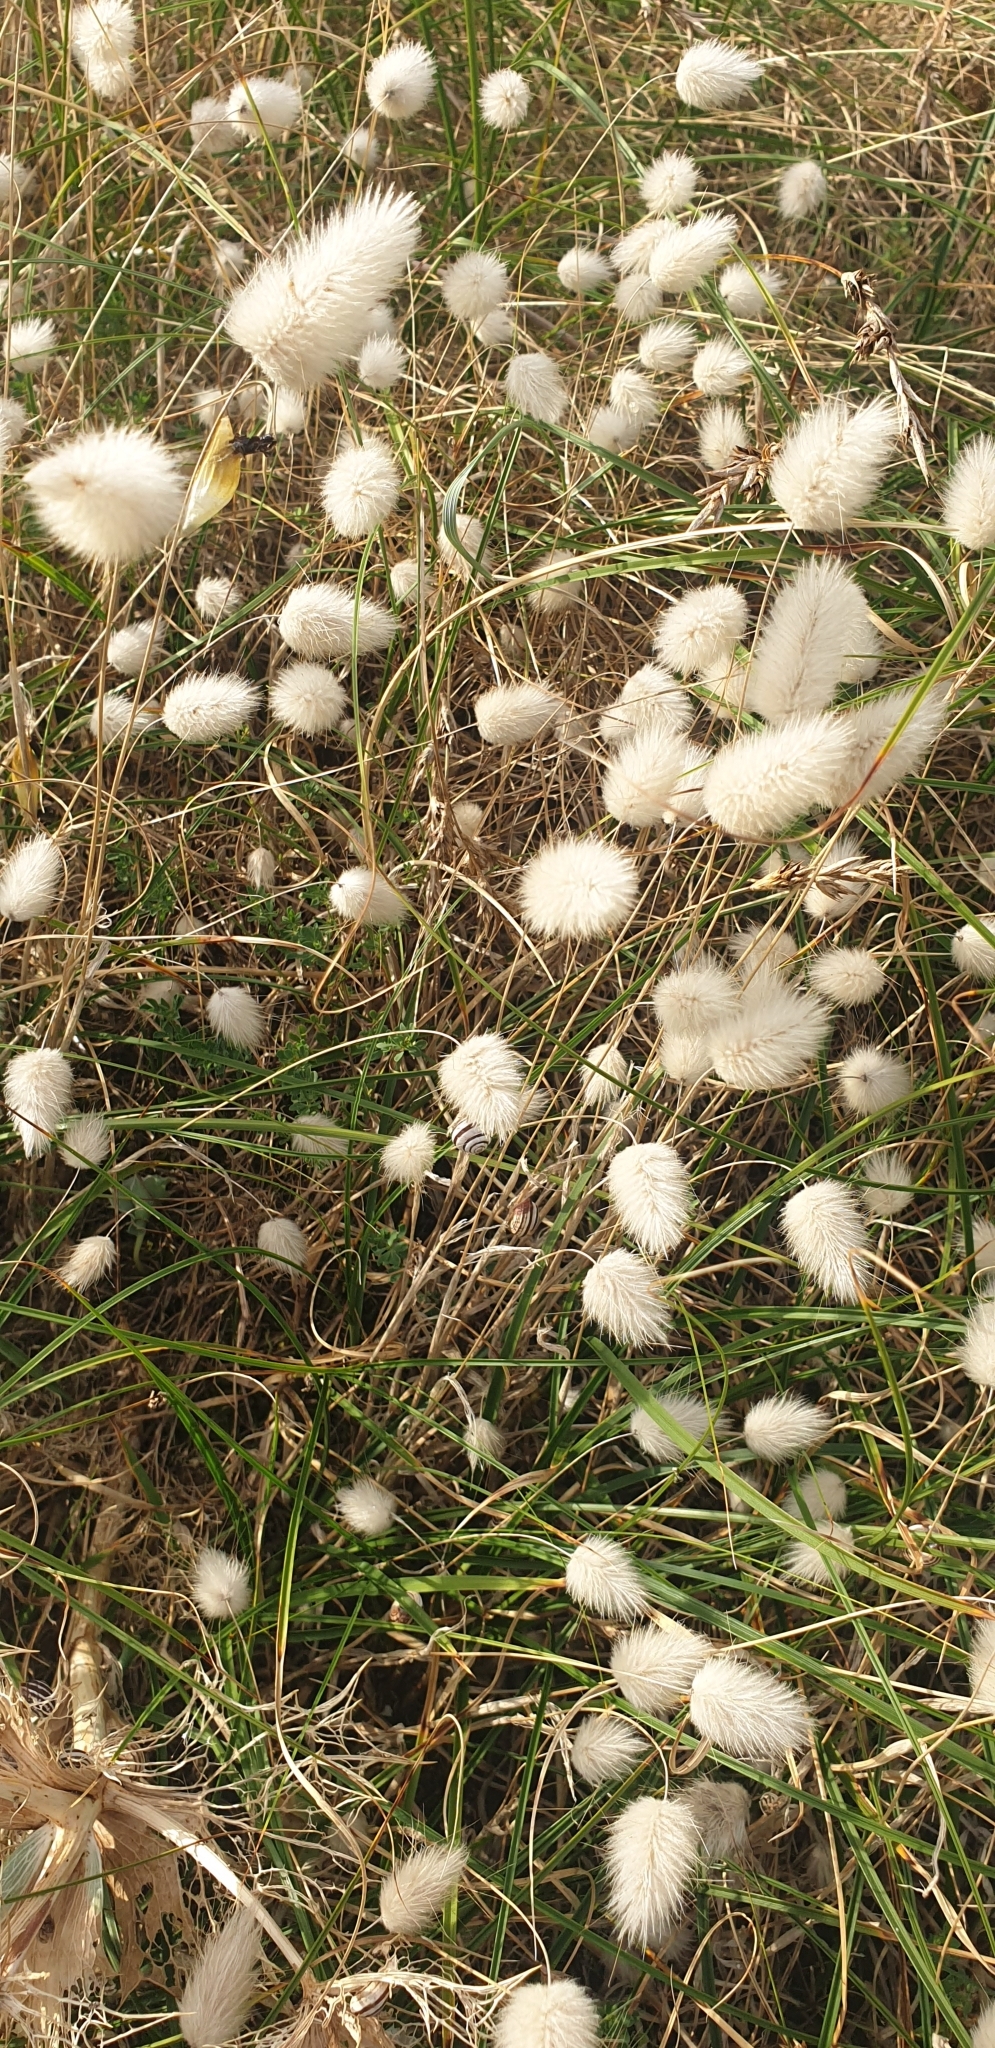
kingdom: Plantae
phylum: Tracheophyta
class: Liliopsida
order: Poales
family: Poaceae
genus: Lagurus
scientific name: Lagurus ovatus
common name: Hare's-tail
